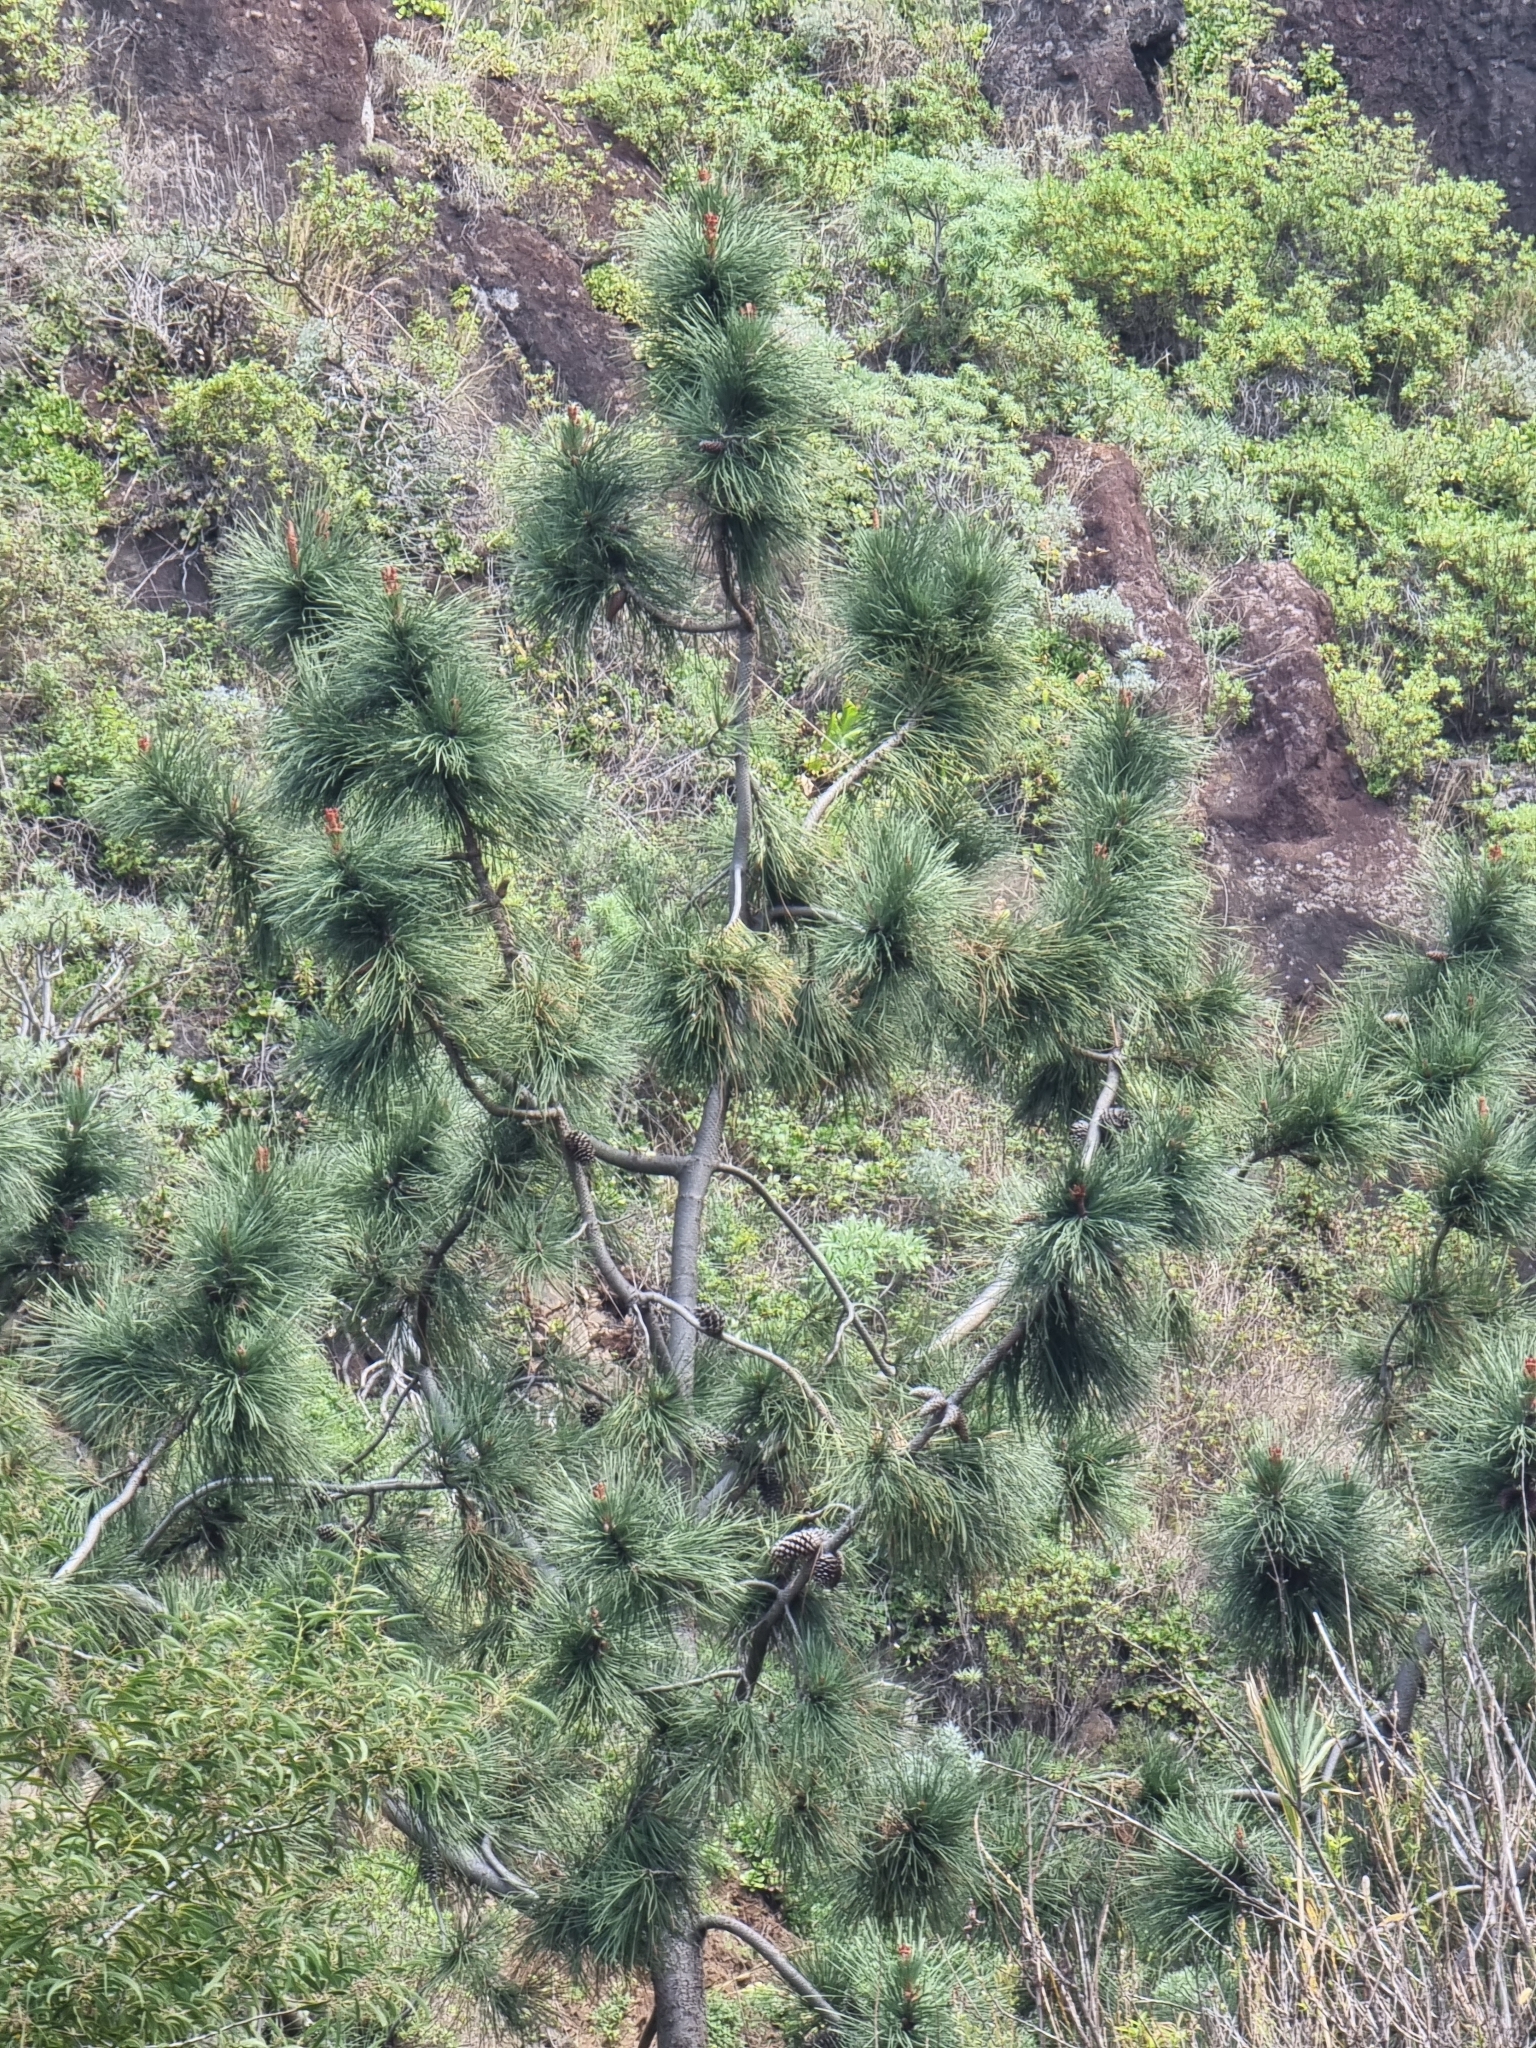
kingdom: Plantae
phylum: Tracheophyta
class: Pinopsida
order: Pinales
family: Pinaceae
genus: Pinus
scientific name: Pinus pinaster
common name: Maritime pine
